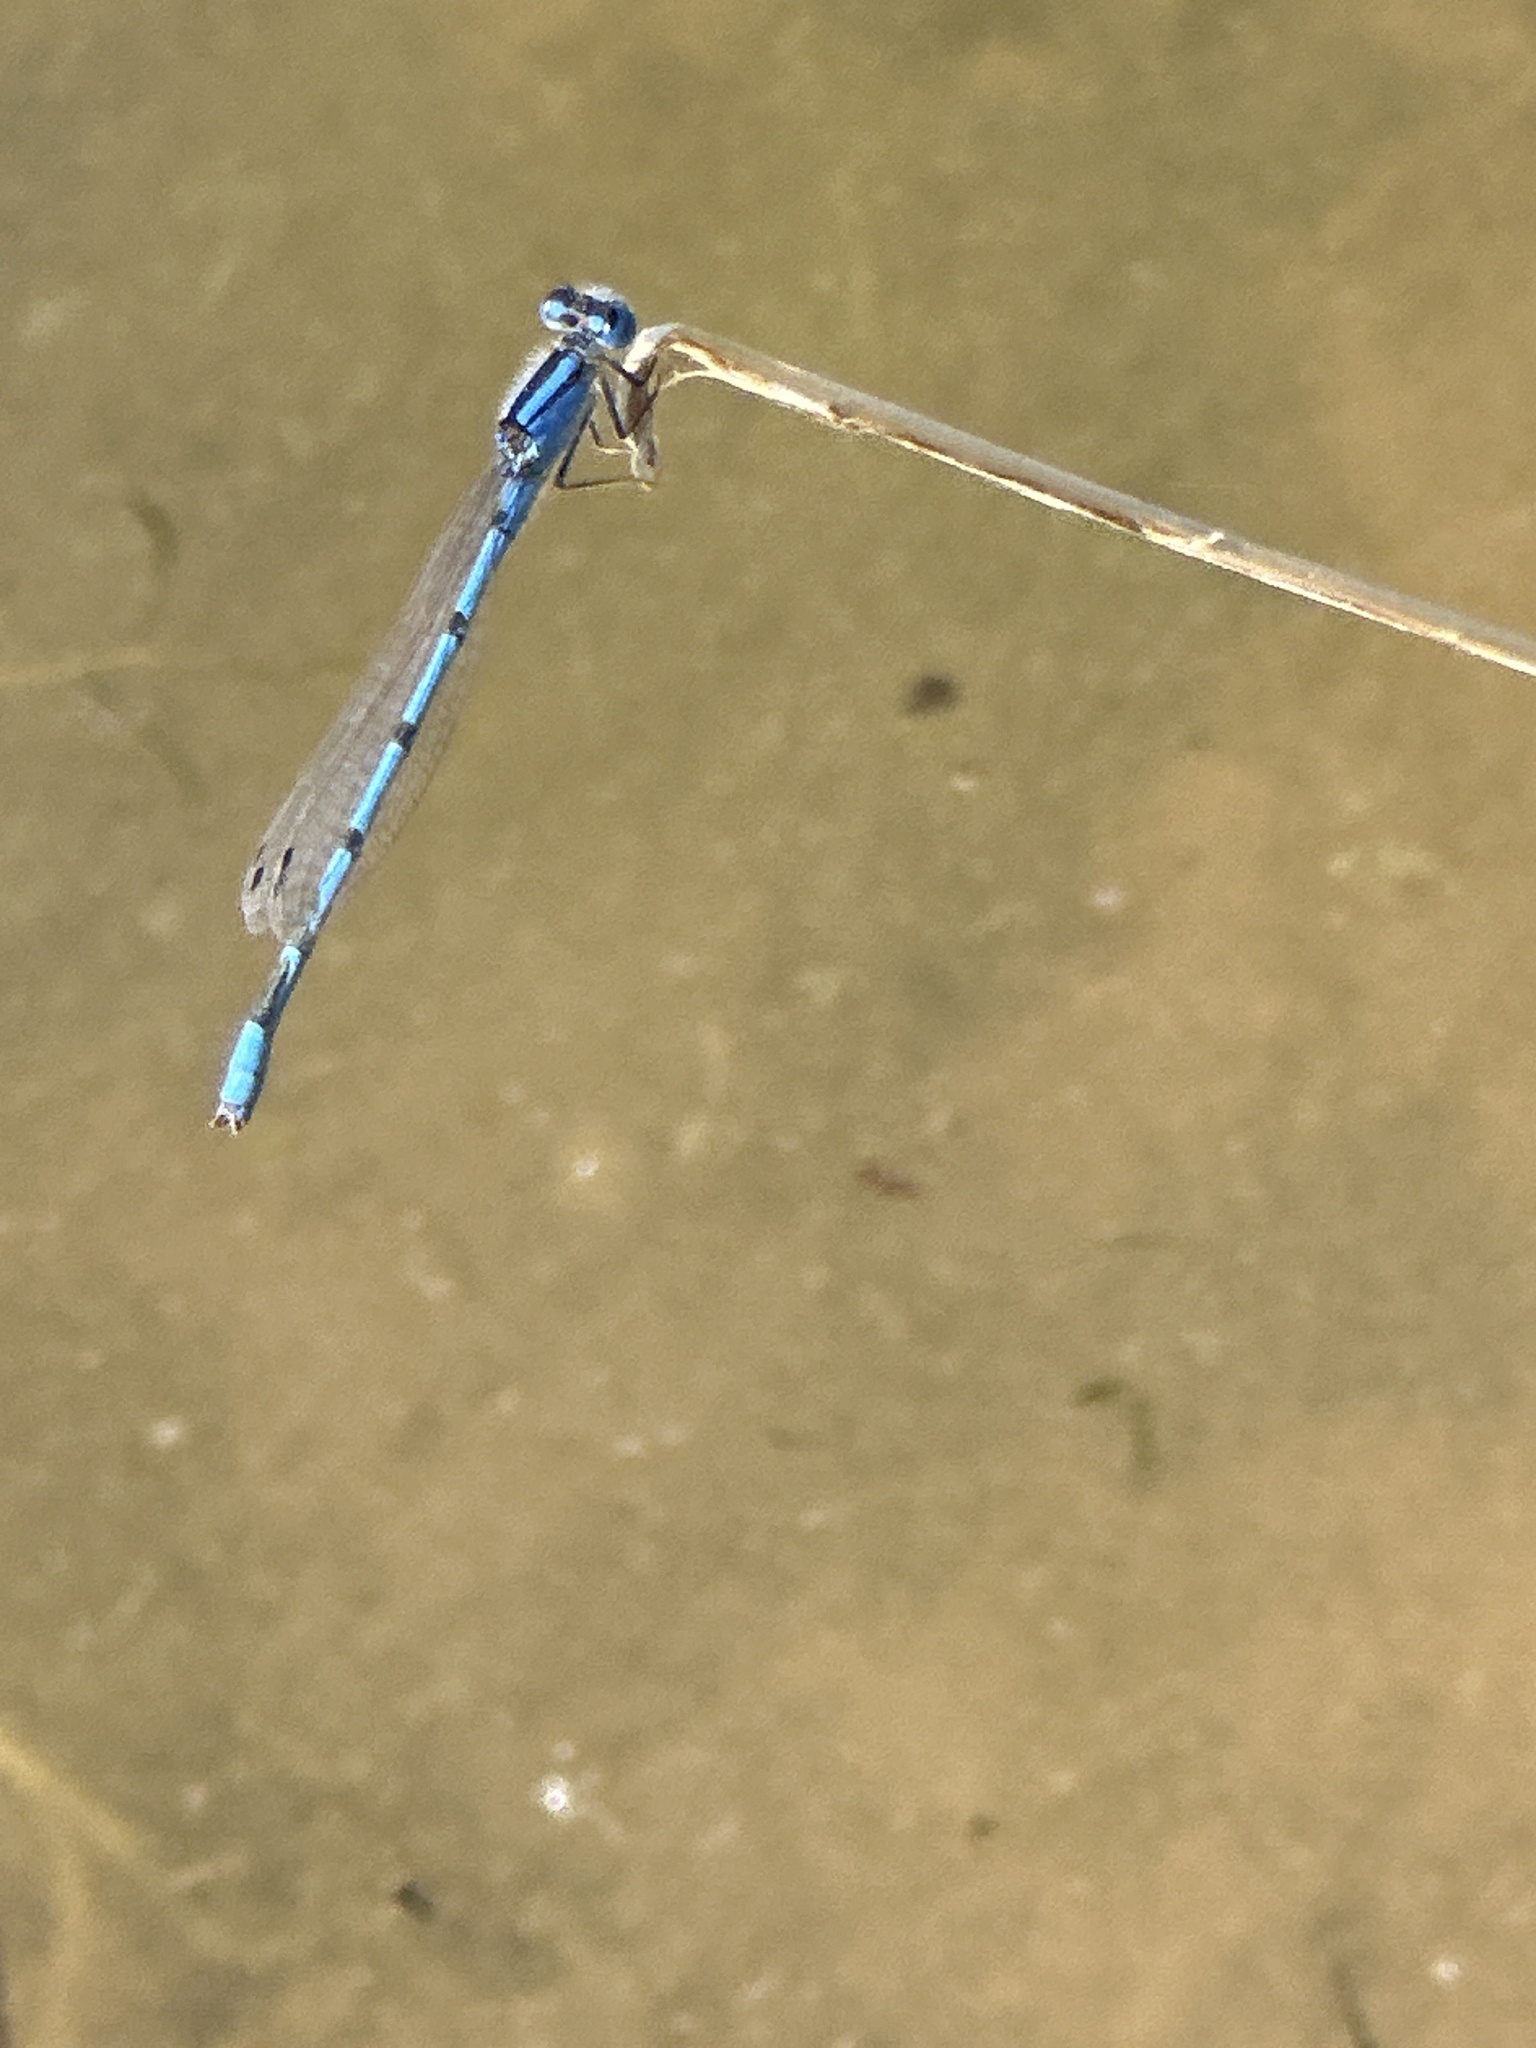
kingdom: Animalia
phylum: Arthropoda
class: Insecta
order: Odonata
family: Coenagrionidae
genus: Enallagma
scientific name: Enallagma civile
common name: Damselfly
